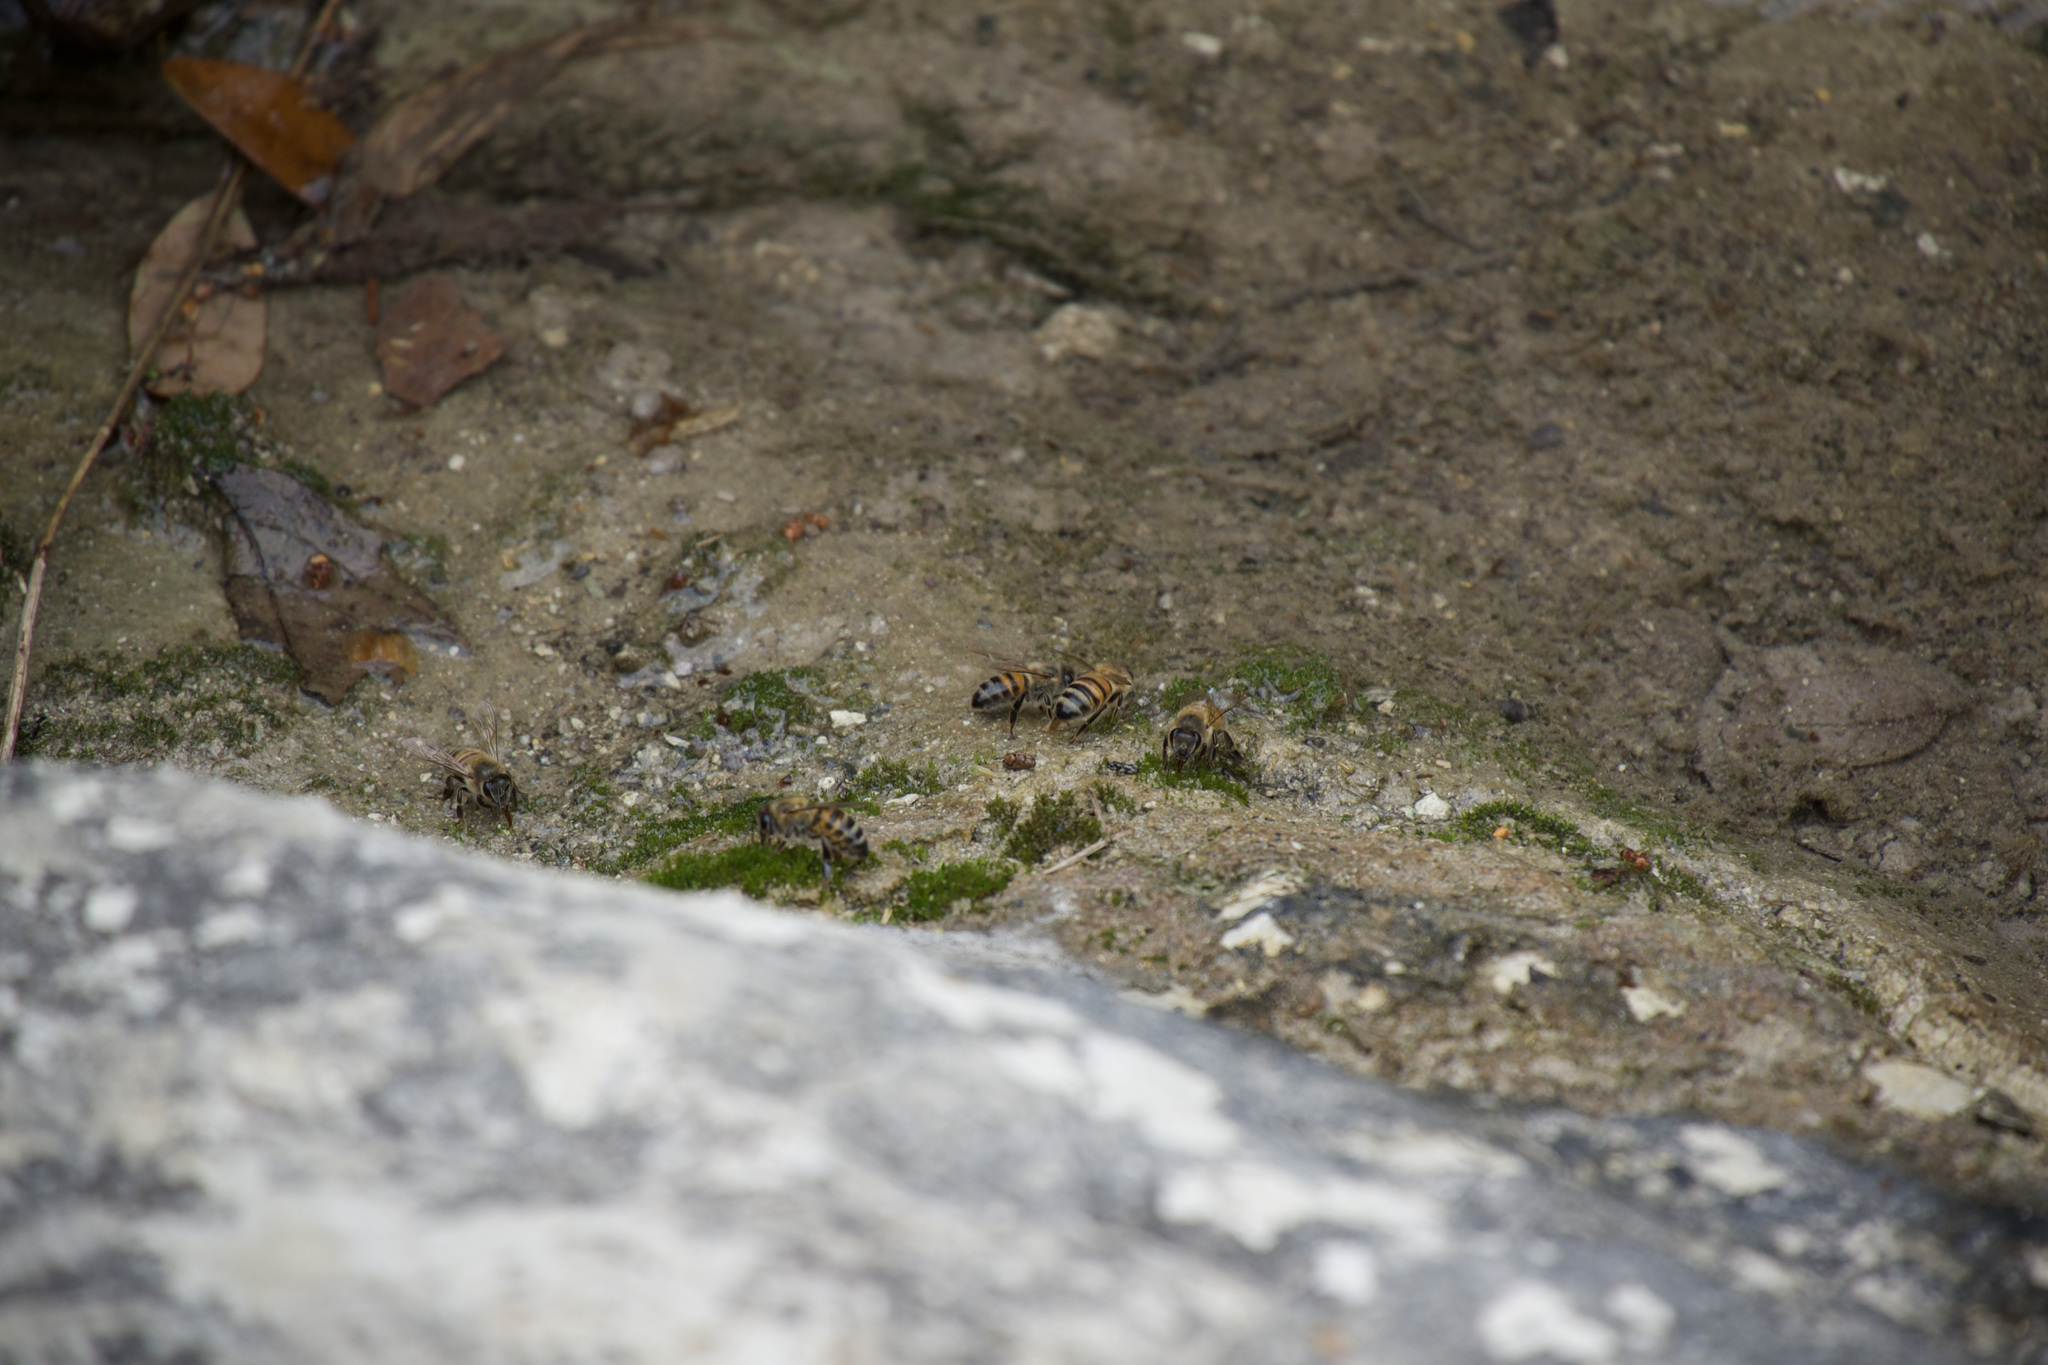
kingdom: Animalia
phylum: Arthropoda
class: Insecta
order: Hymenoptera
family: Apidae
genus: Apis
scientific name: Apis mellifera
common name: Honey bee
